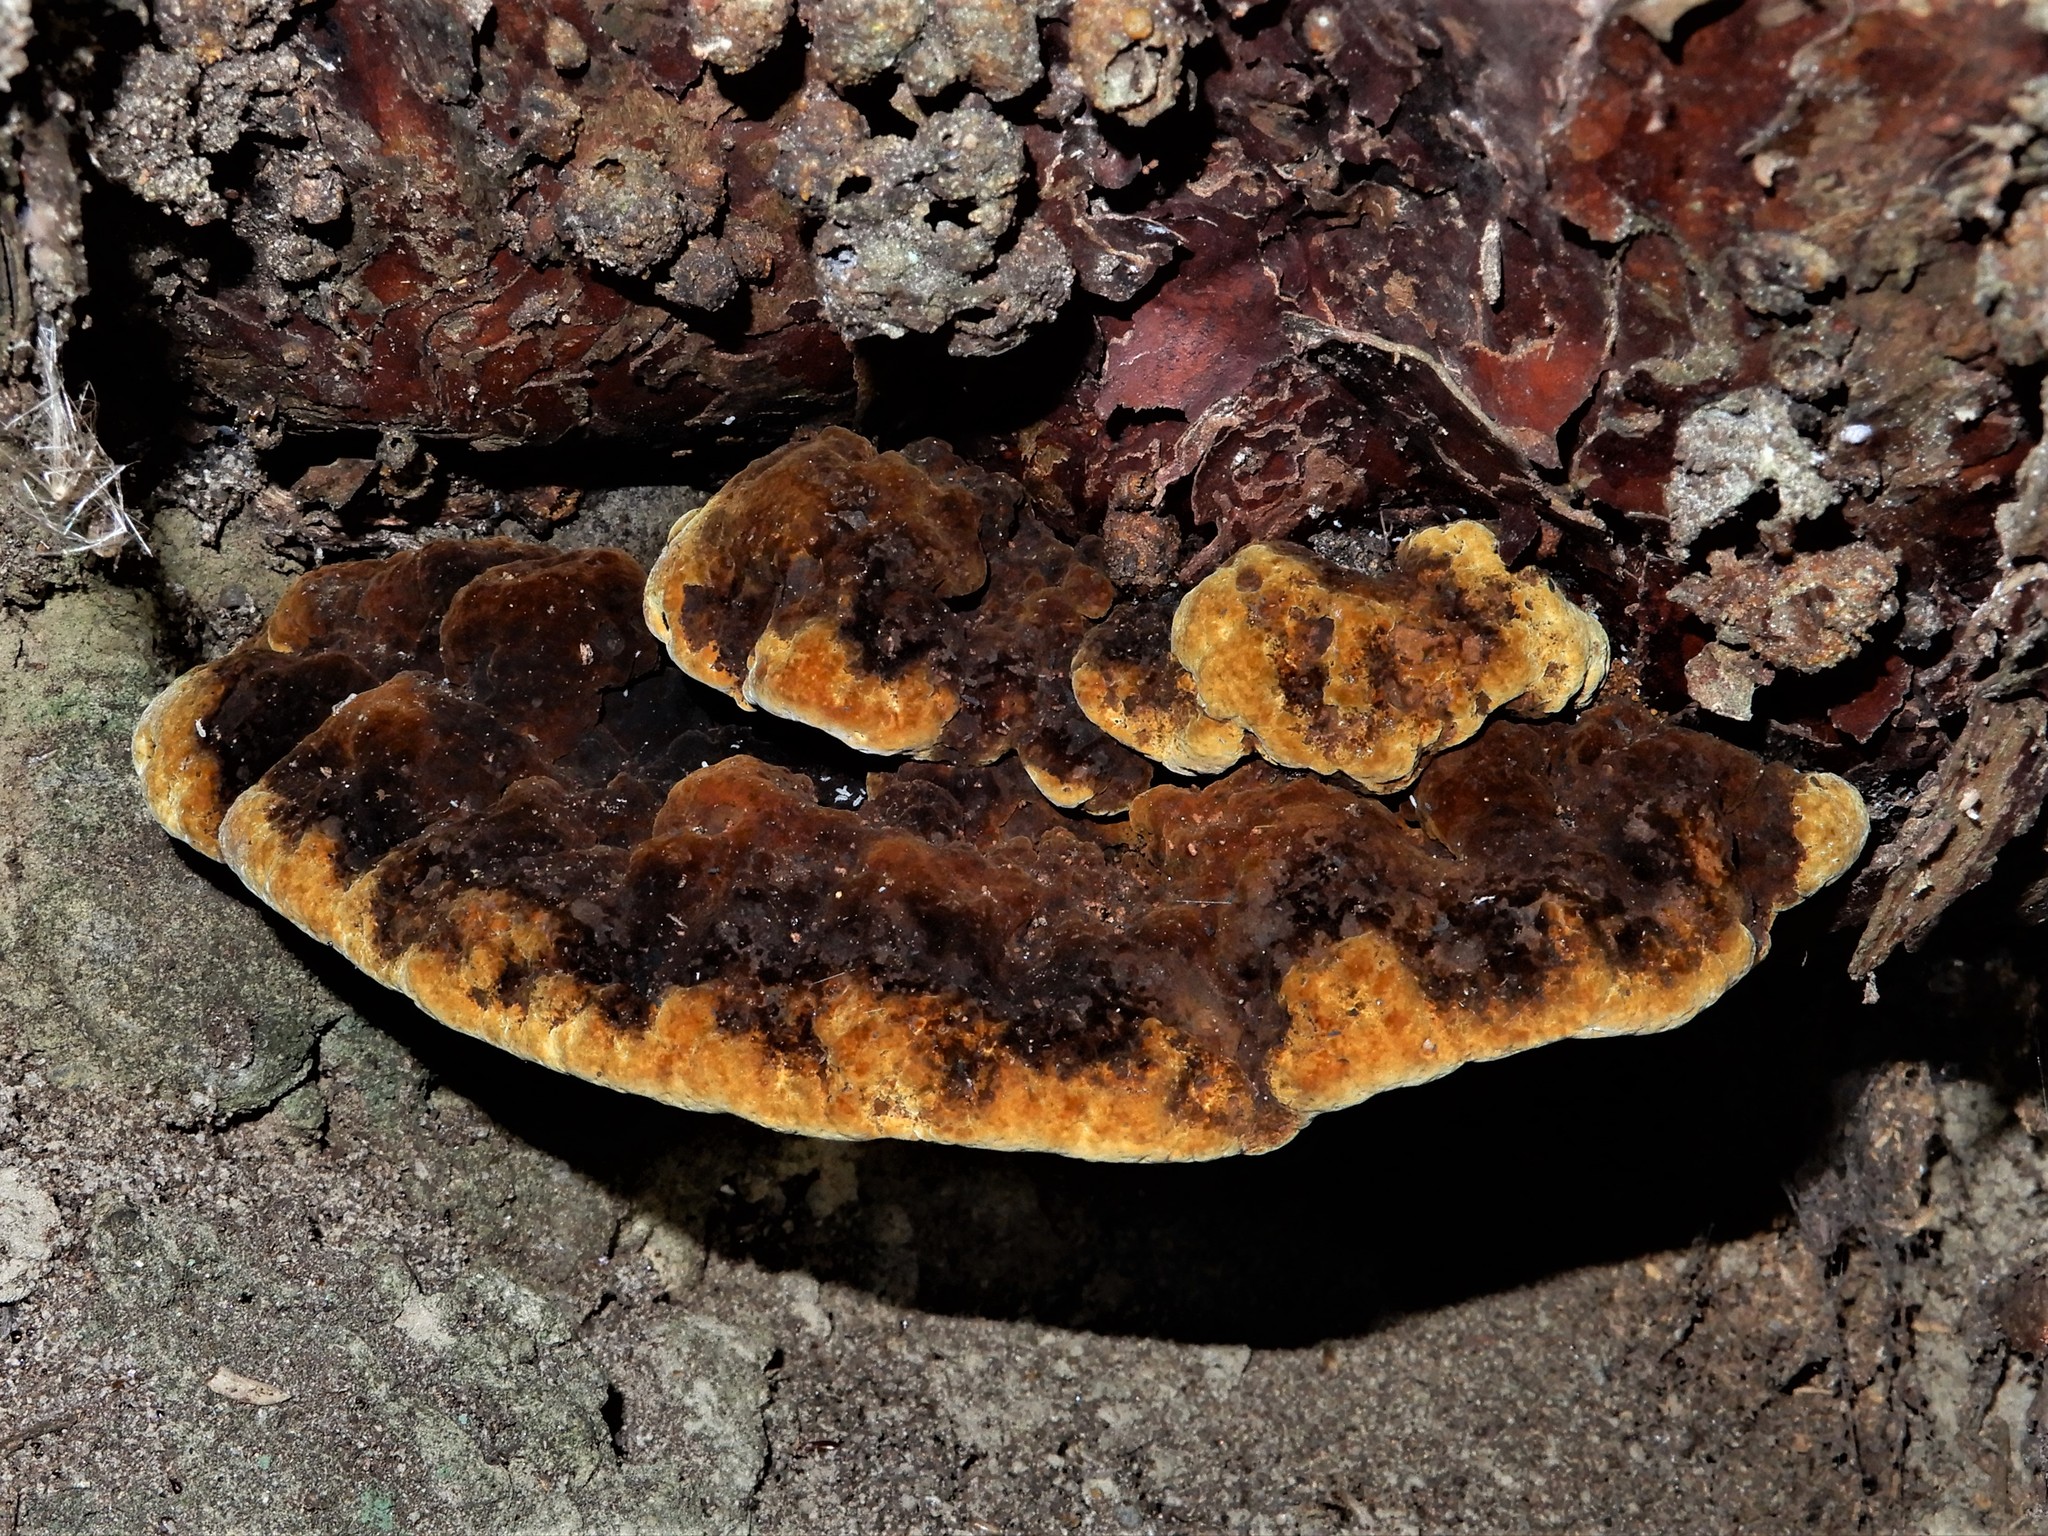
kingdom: Fungi
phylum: Basidiomycota
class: Agaricomycetes
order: Hymenochaetales
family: Hymenochaetaceae
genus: Phellinus
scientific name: Phellinus gilvus
